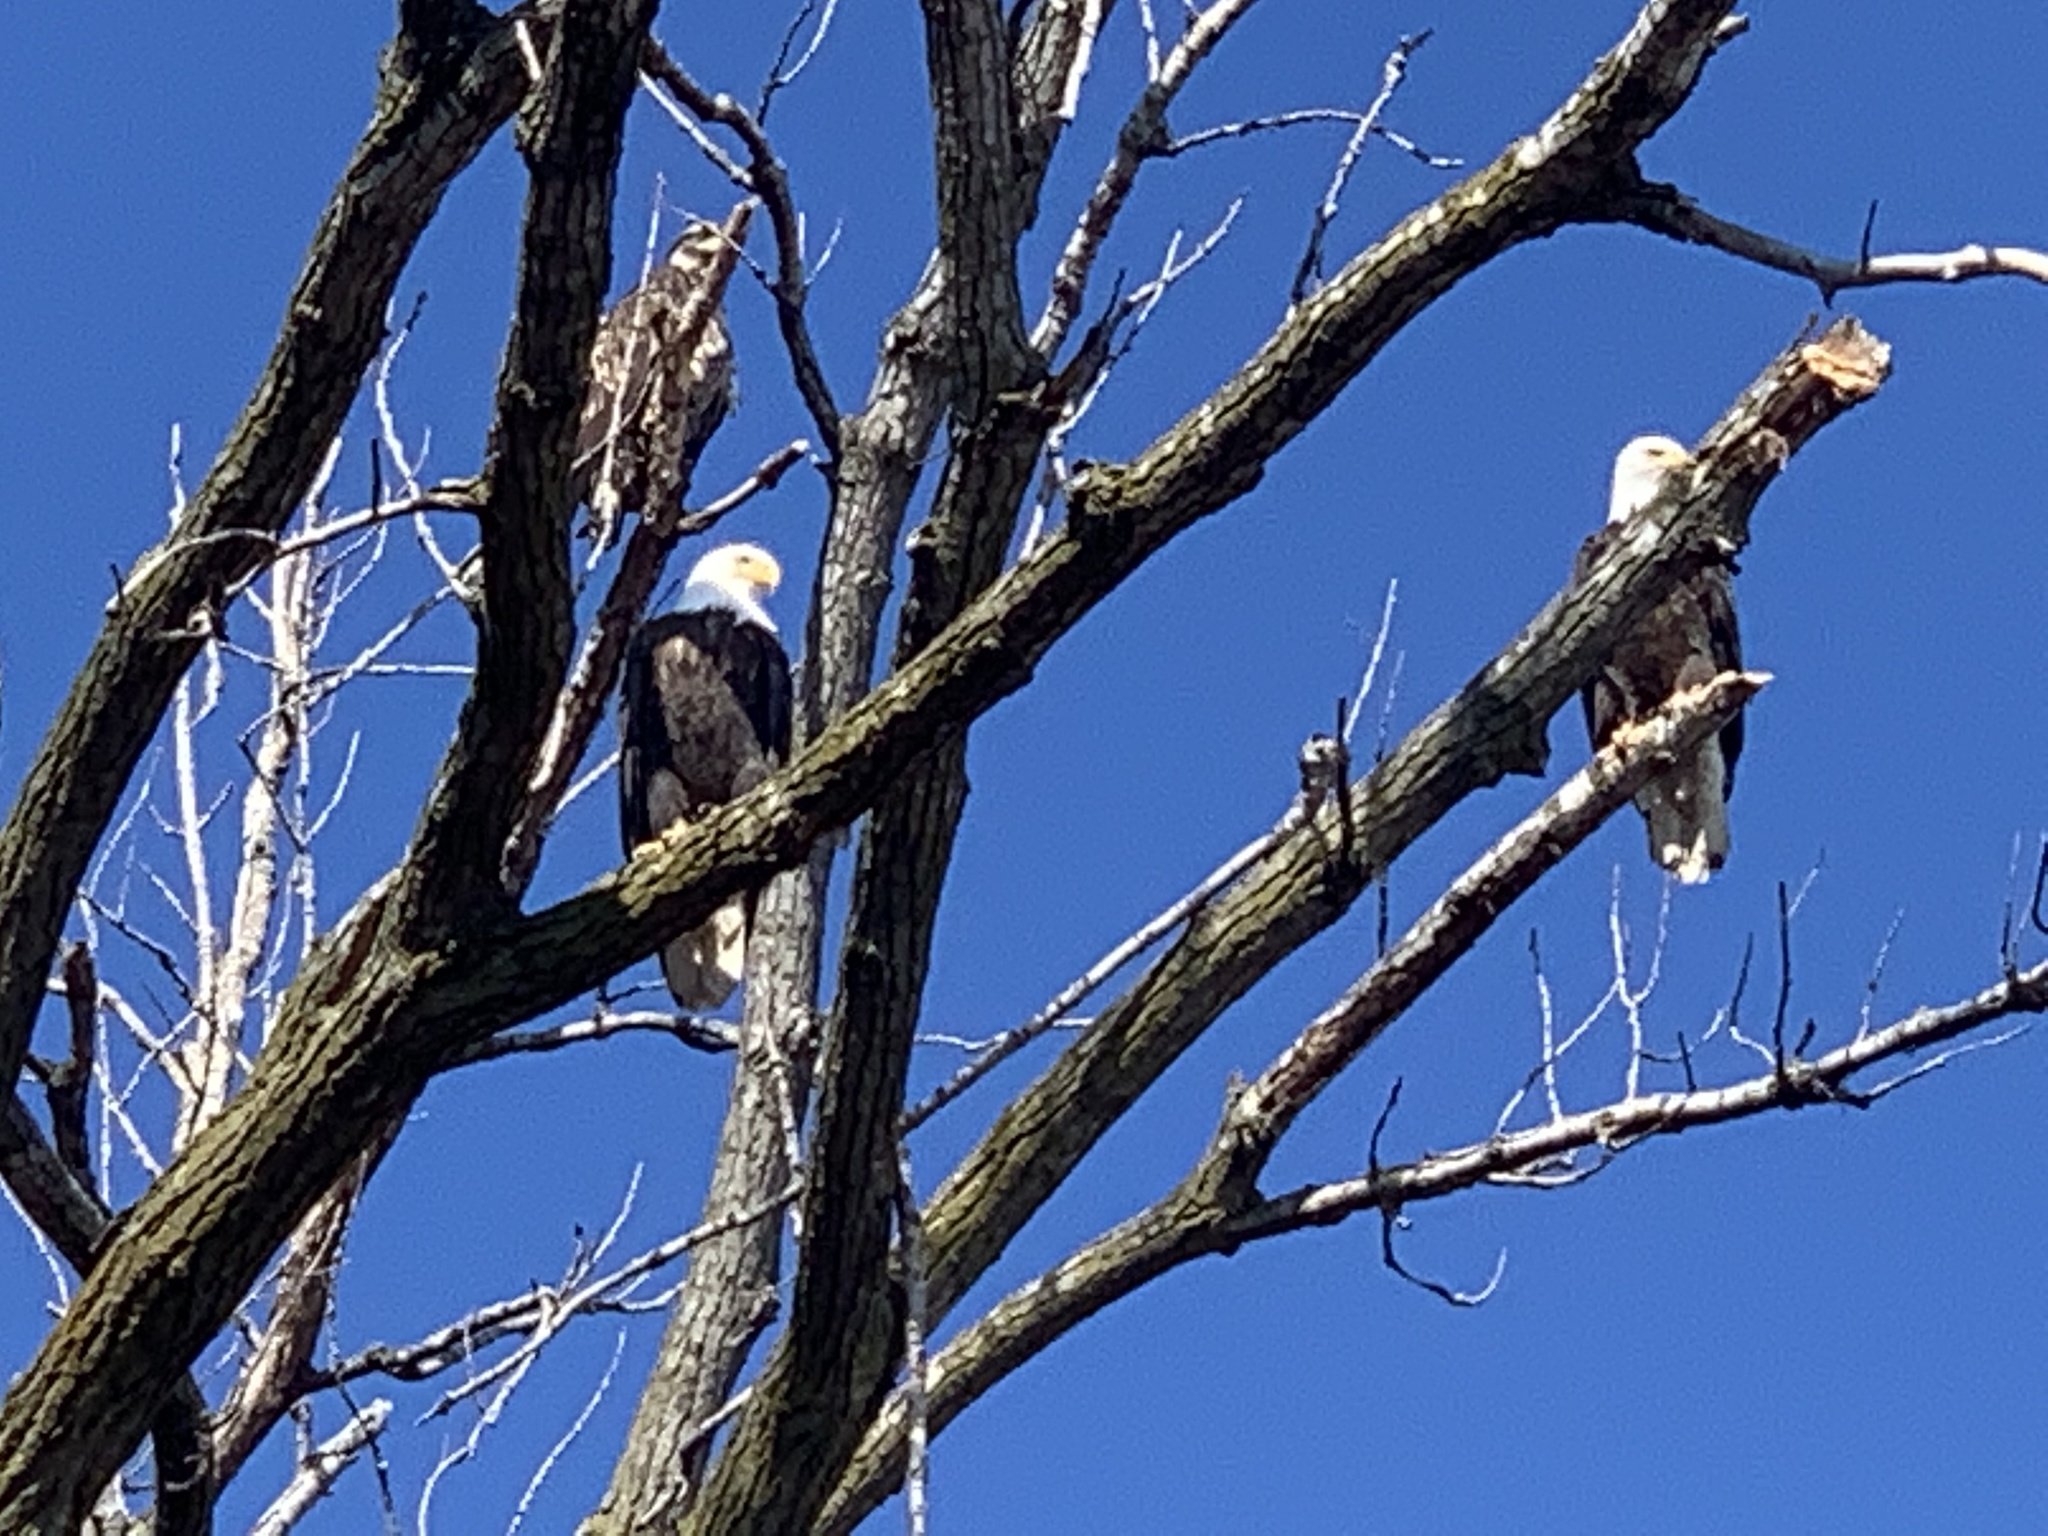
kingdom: Animalia
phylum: Chordata
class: Aves
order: Accipitriformes
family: Accipitridae
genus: Haliaeetus
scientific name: Haliaeetus leucocephalus
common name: Bald eagle
